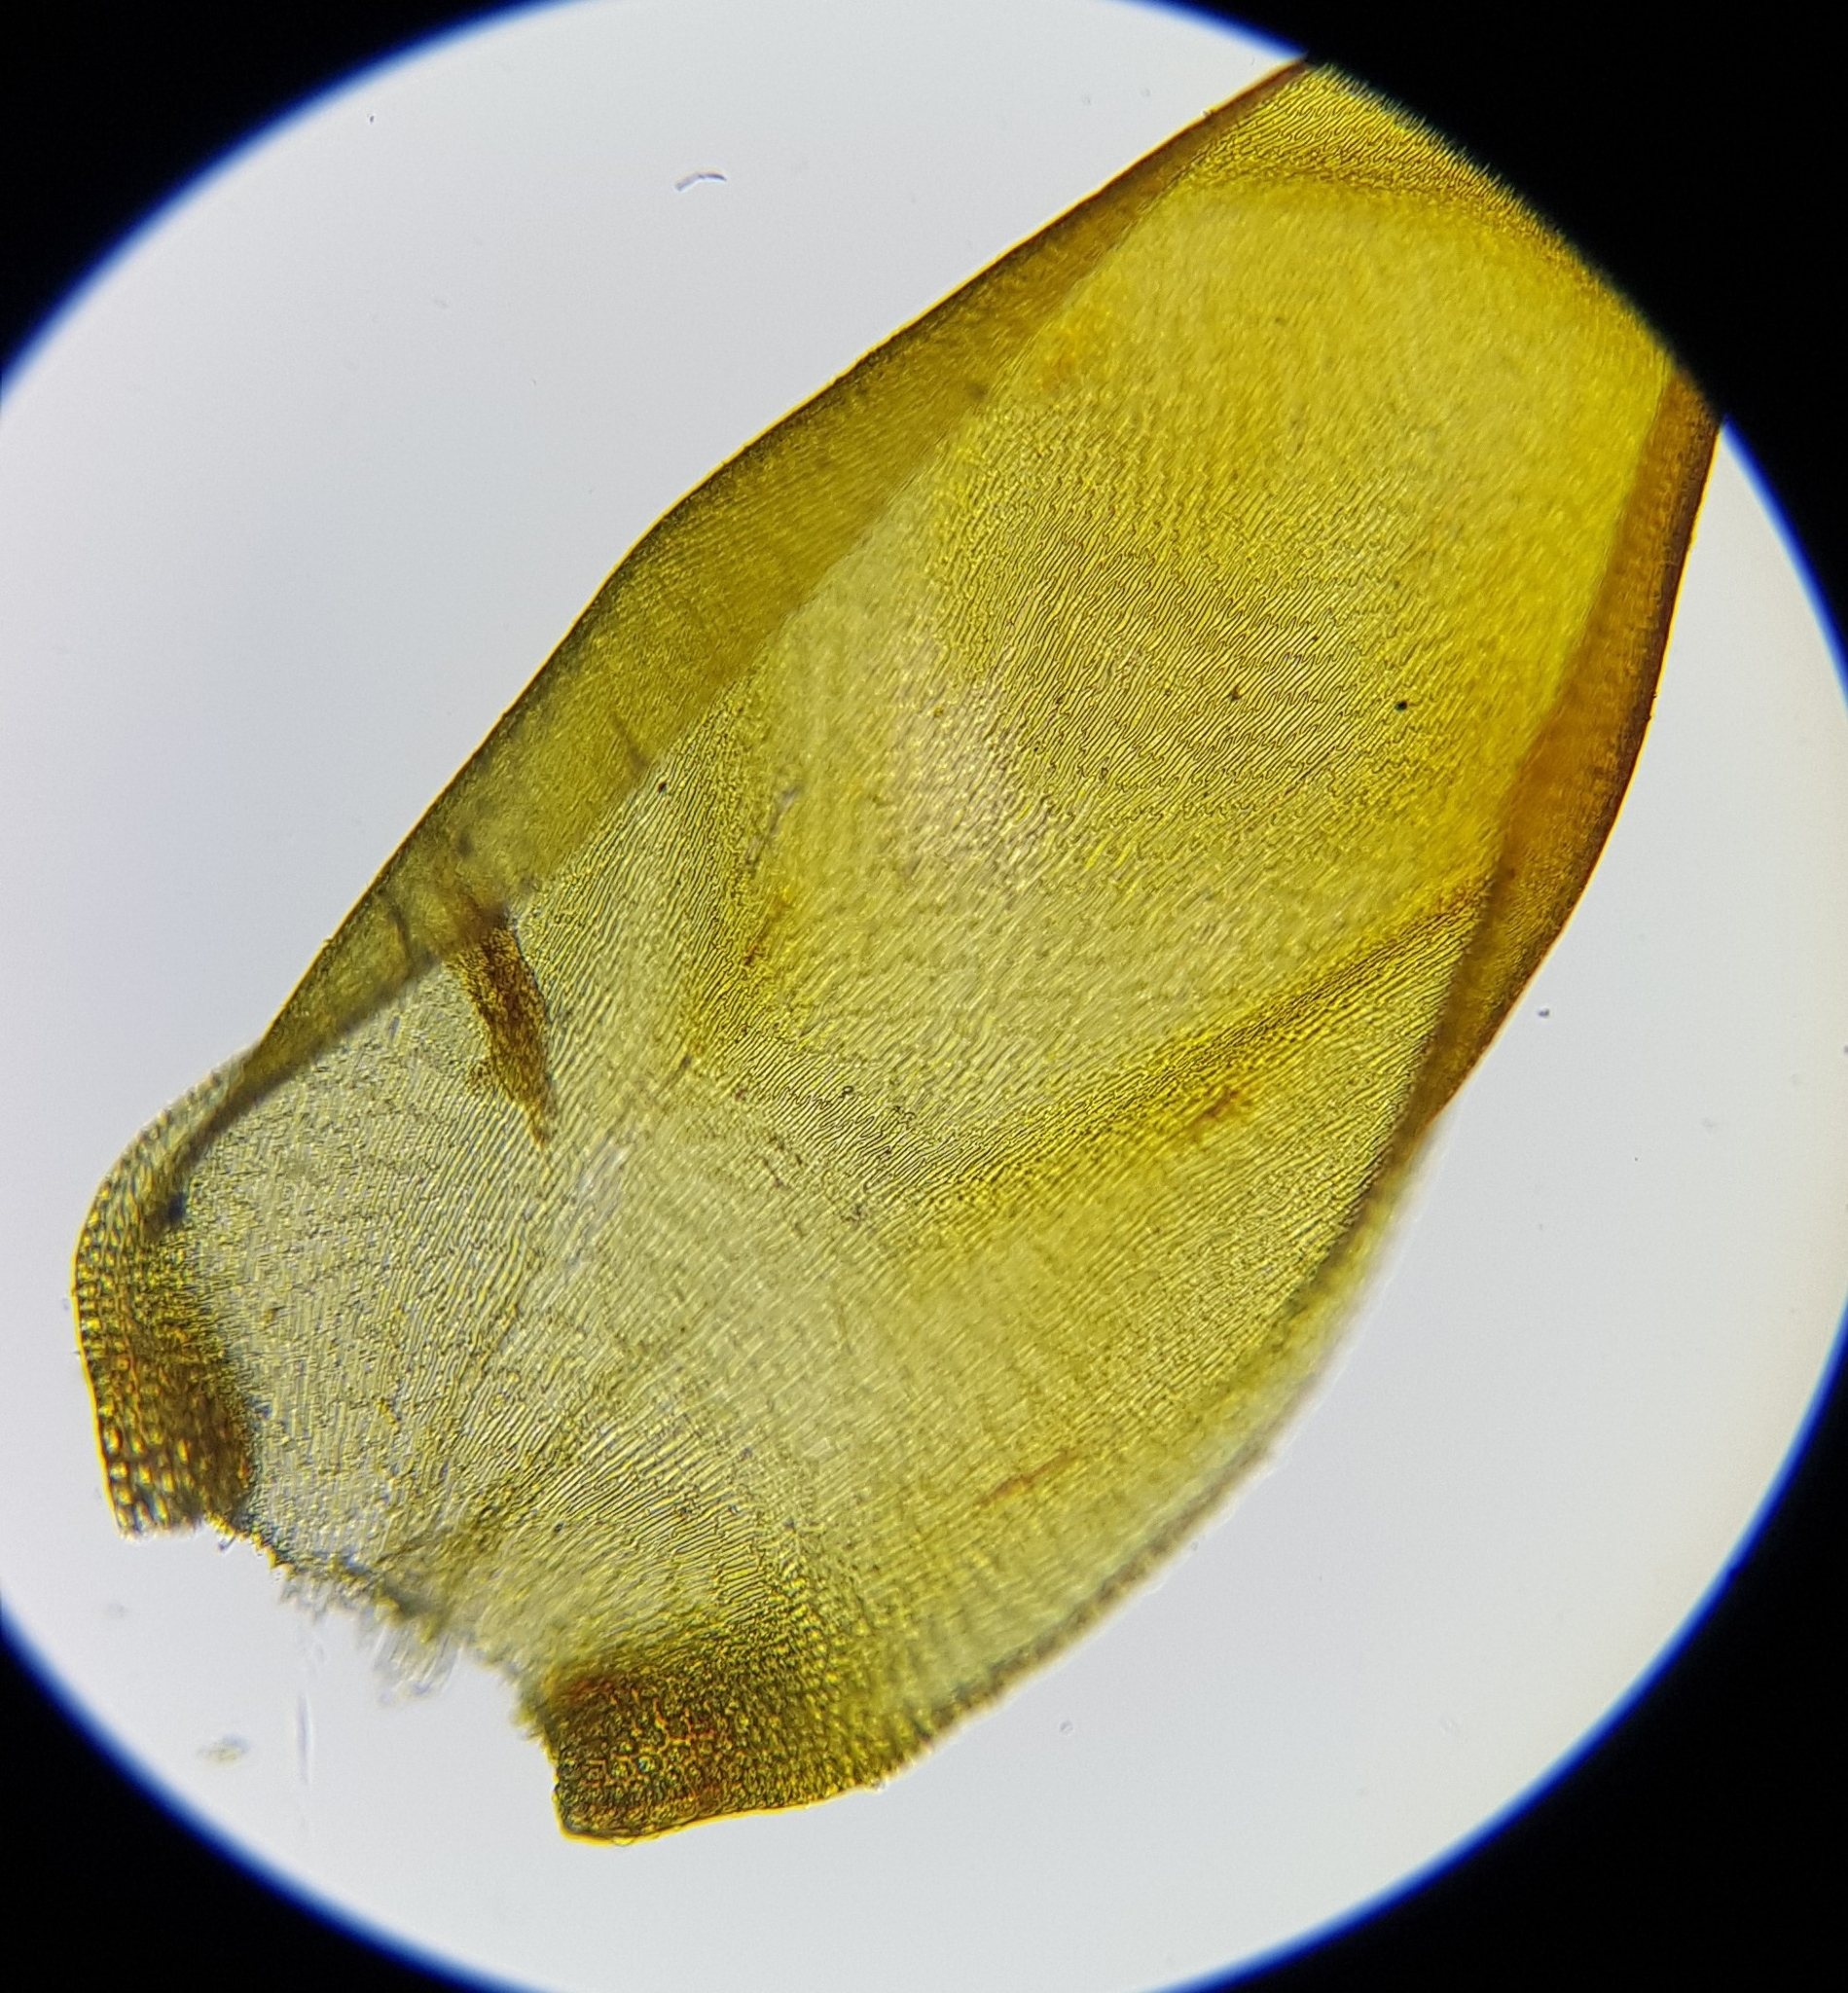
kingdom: Plantae
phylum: Bryophyta
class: Bryopsida
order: Hypnales
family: Hypnaceae
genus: Hypnum
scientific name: Hypnum cupressiforme
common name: Cypress-leaved plait-moss
